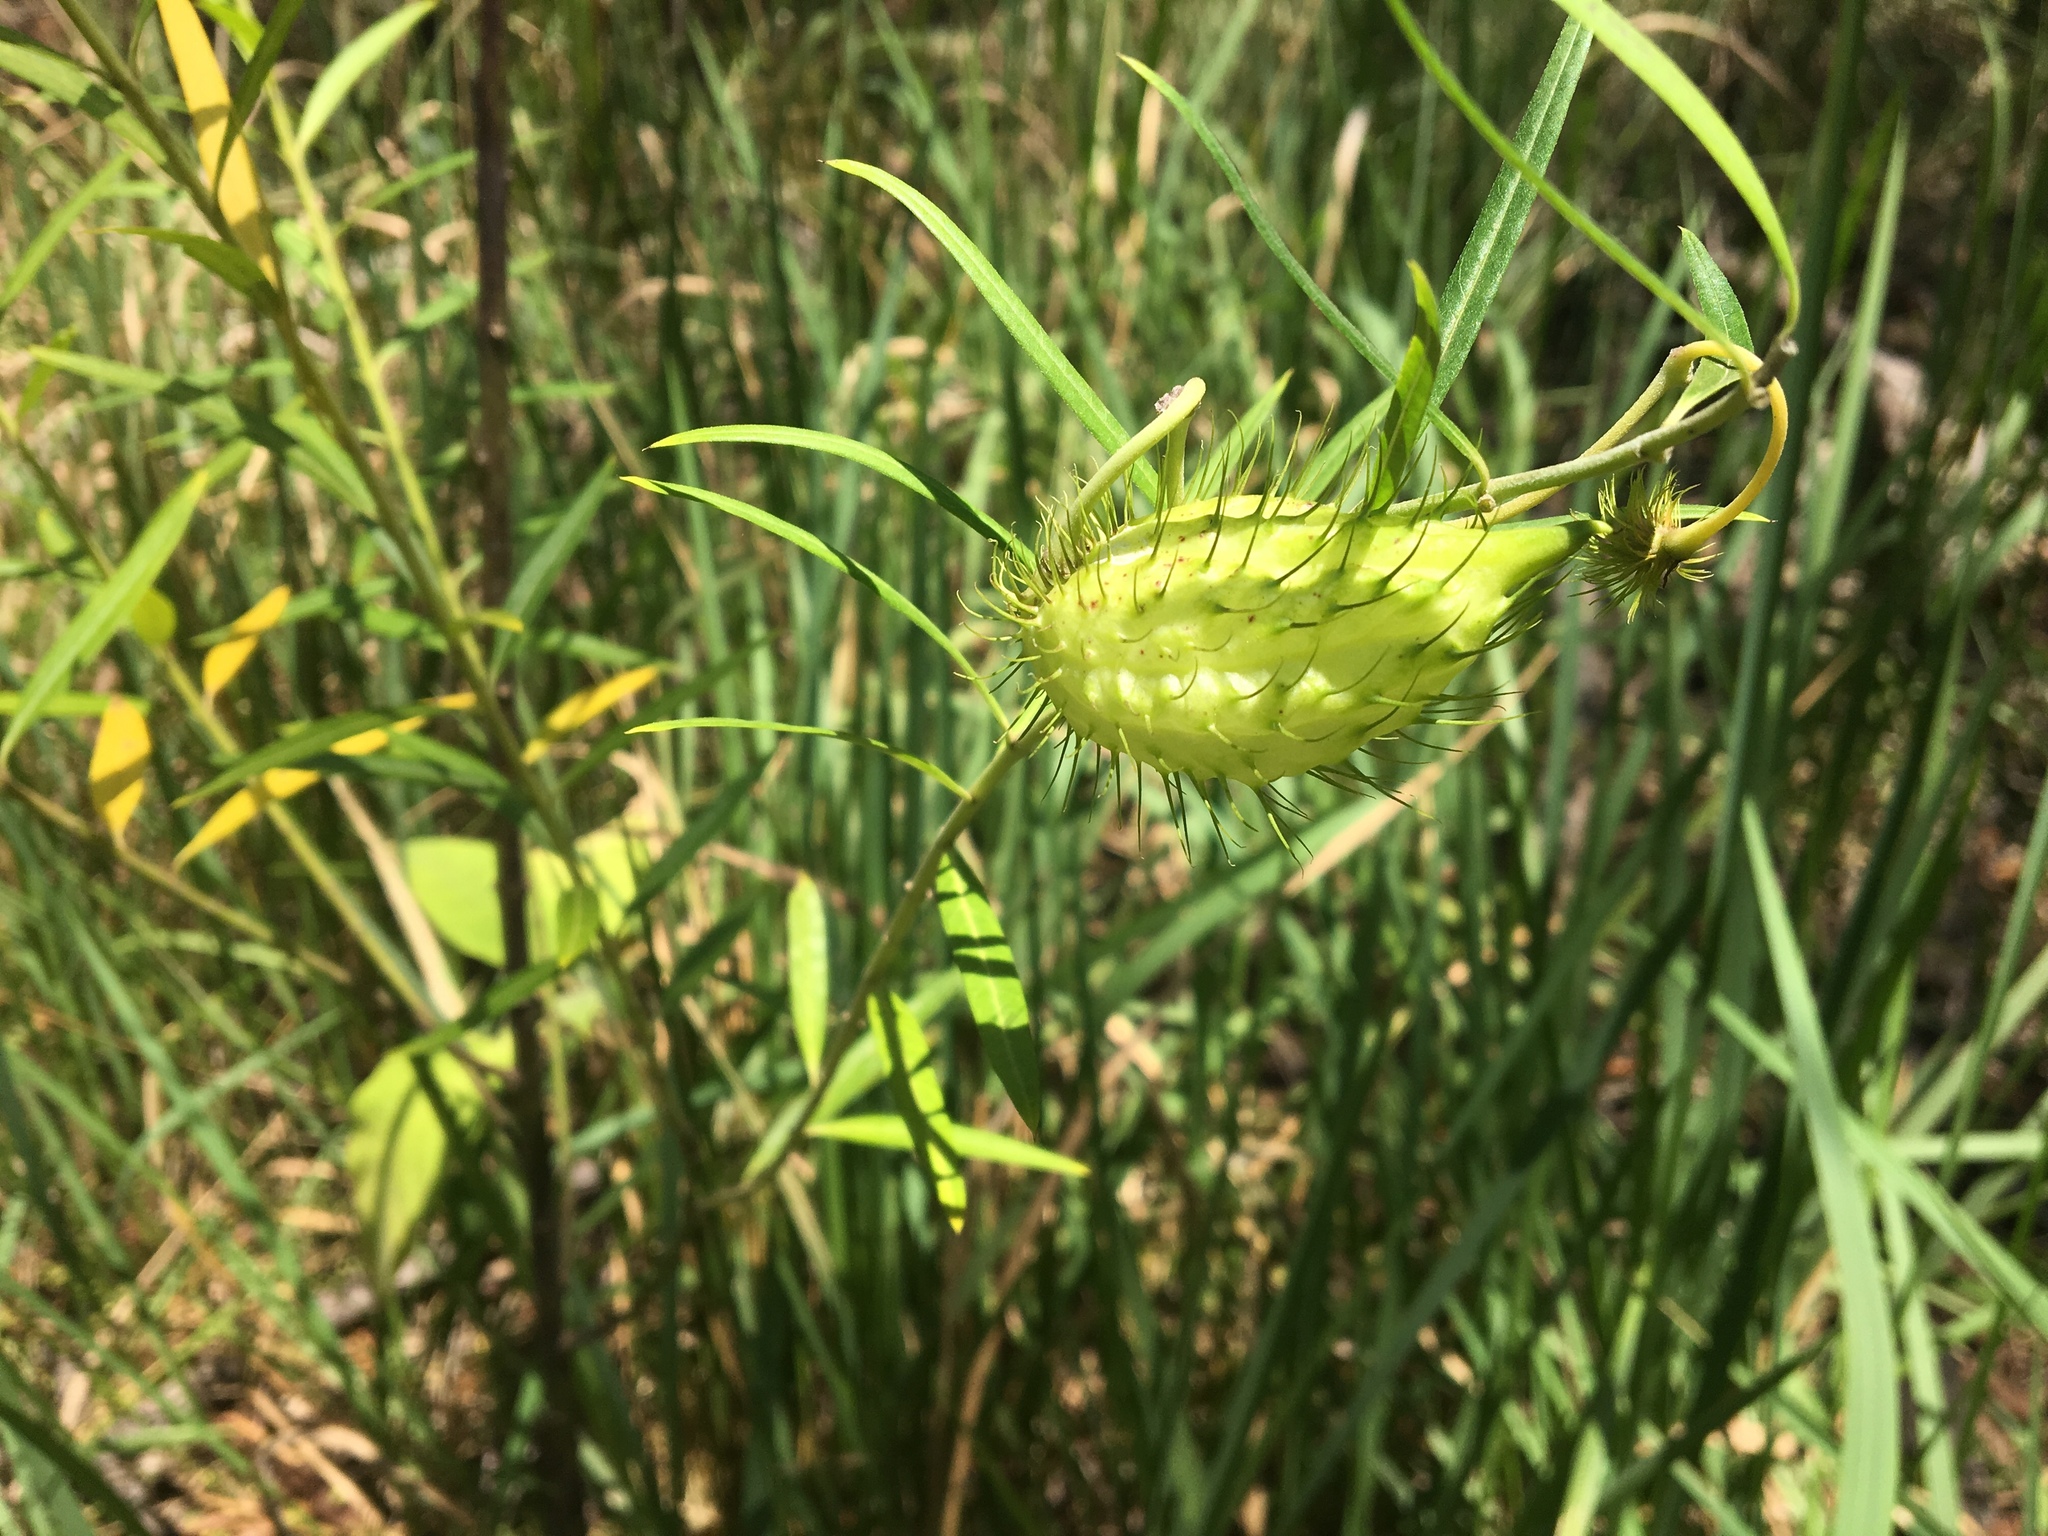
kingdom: Plantae
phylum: Tracheophyta
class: Magnoliopsida
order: Gentianales
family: Apocynaceae
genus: Gomphocarpus
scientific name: Gomphocarpus fruticosus
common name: Milkweed
